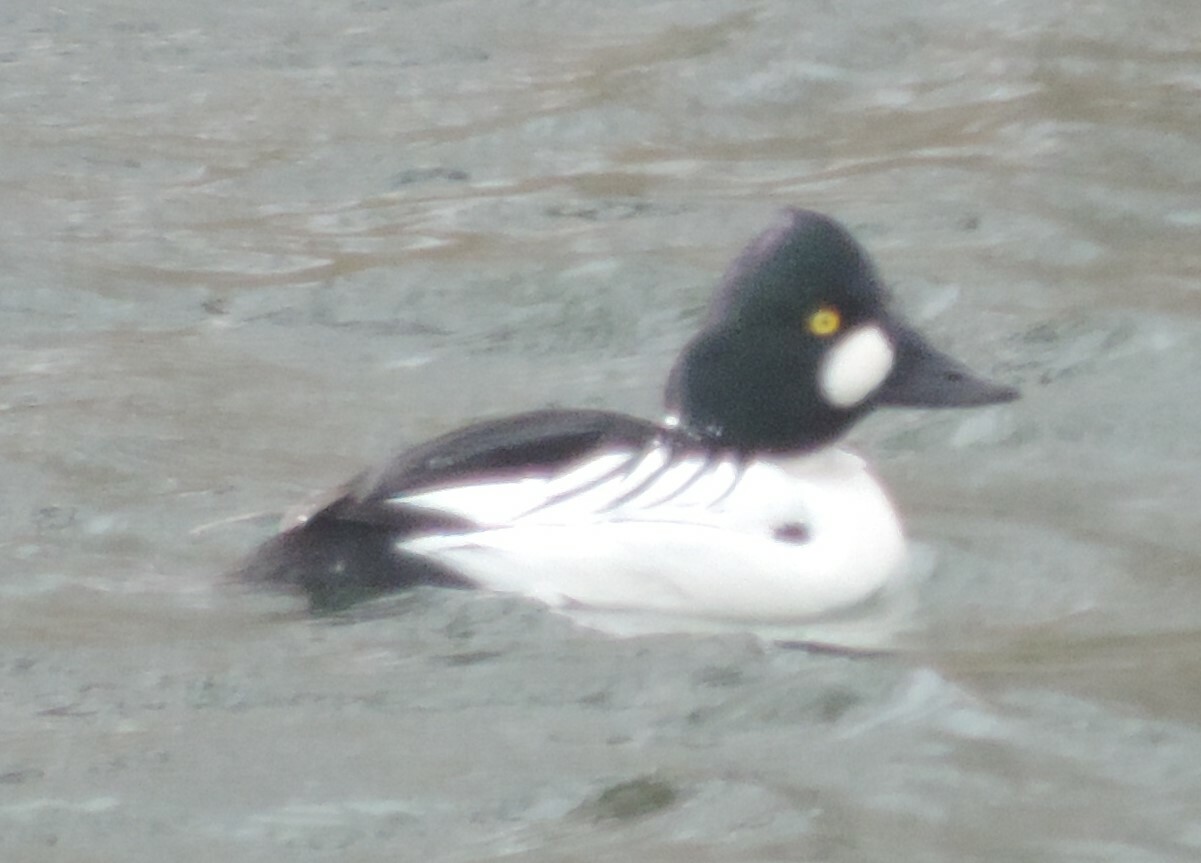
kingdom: Animalia
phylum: Chordata
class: Aves
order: Anseriformes
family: Anatidae
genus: Bucephala
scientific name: Bucephala clangula
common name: Common goldeneye
